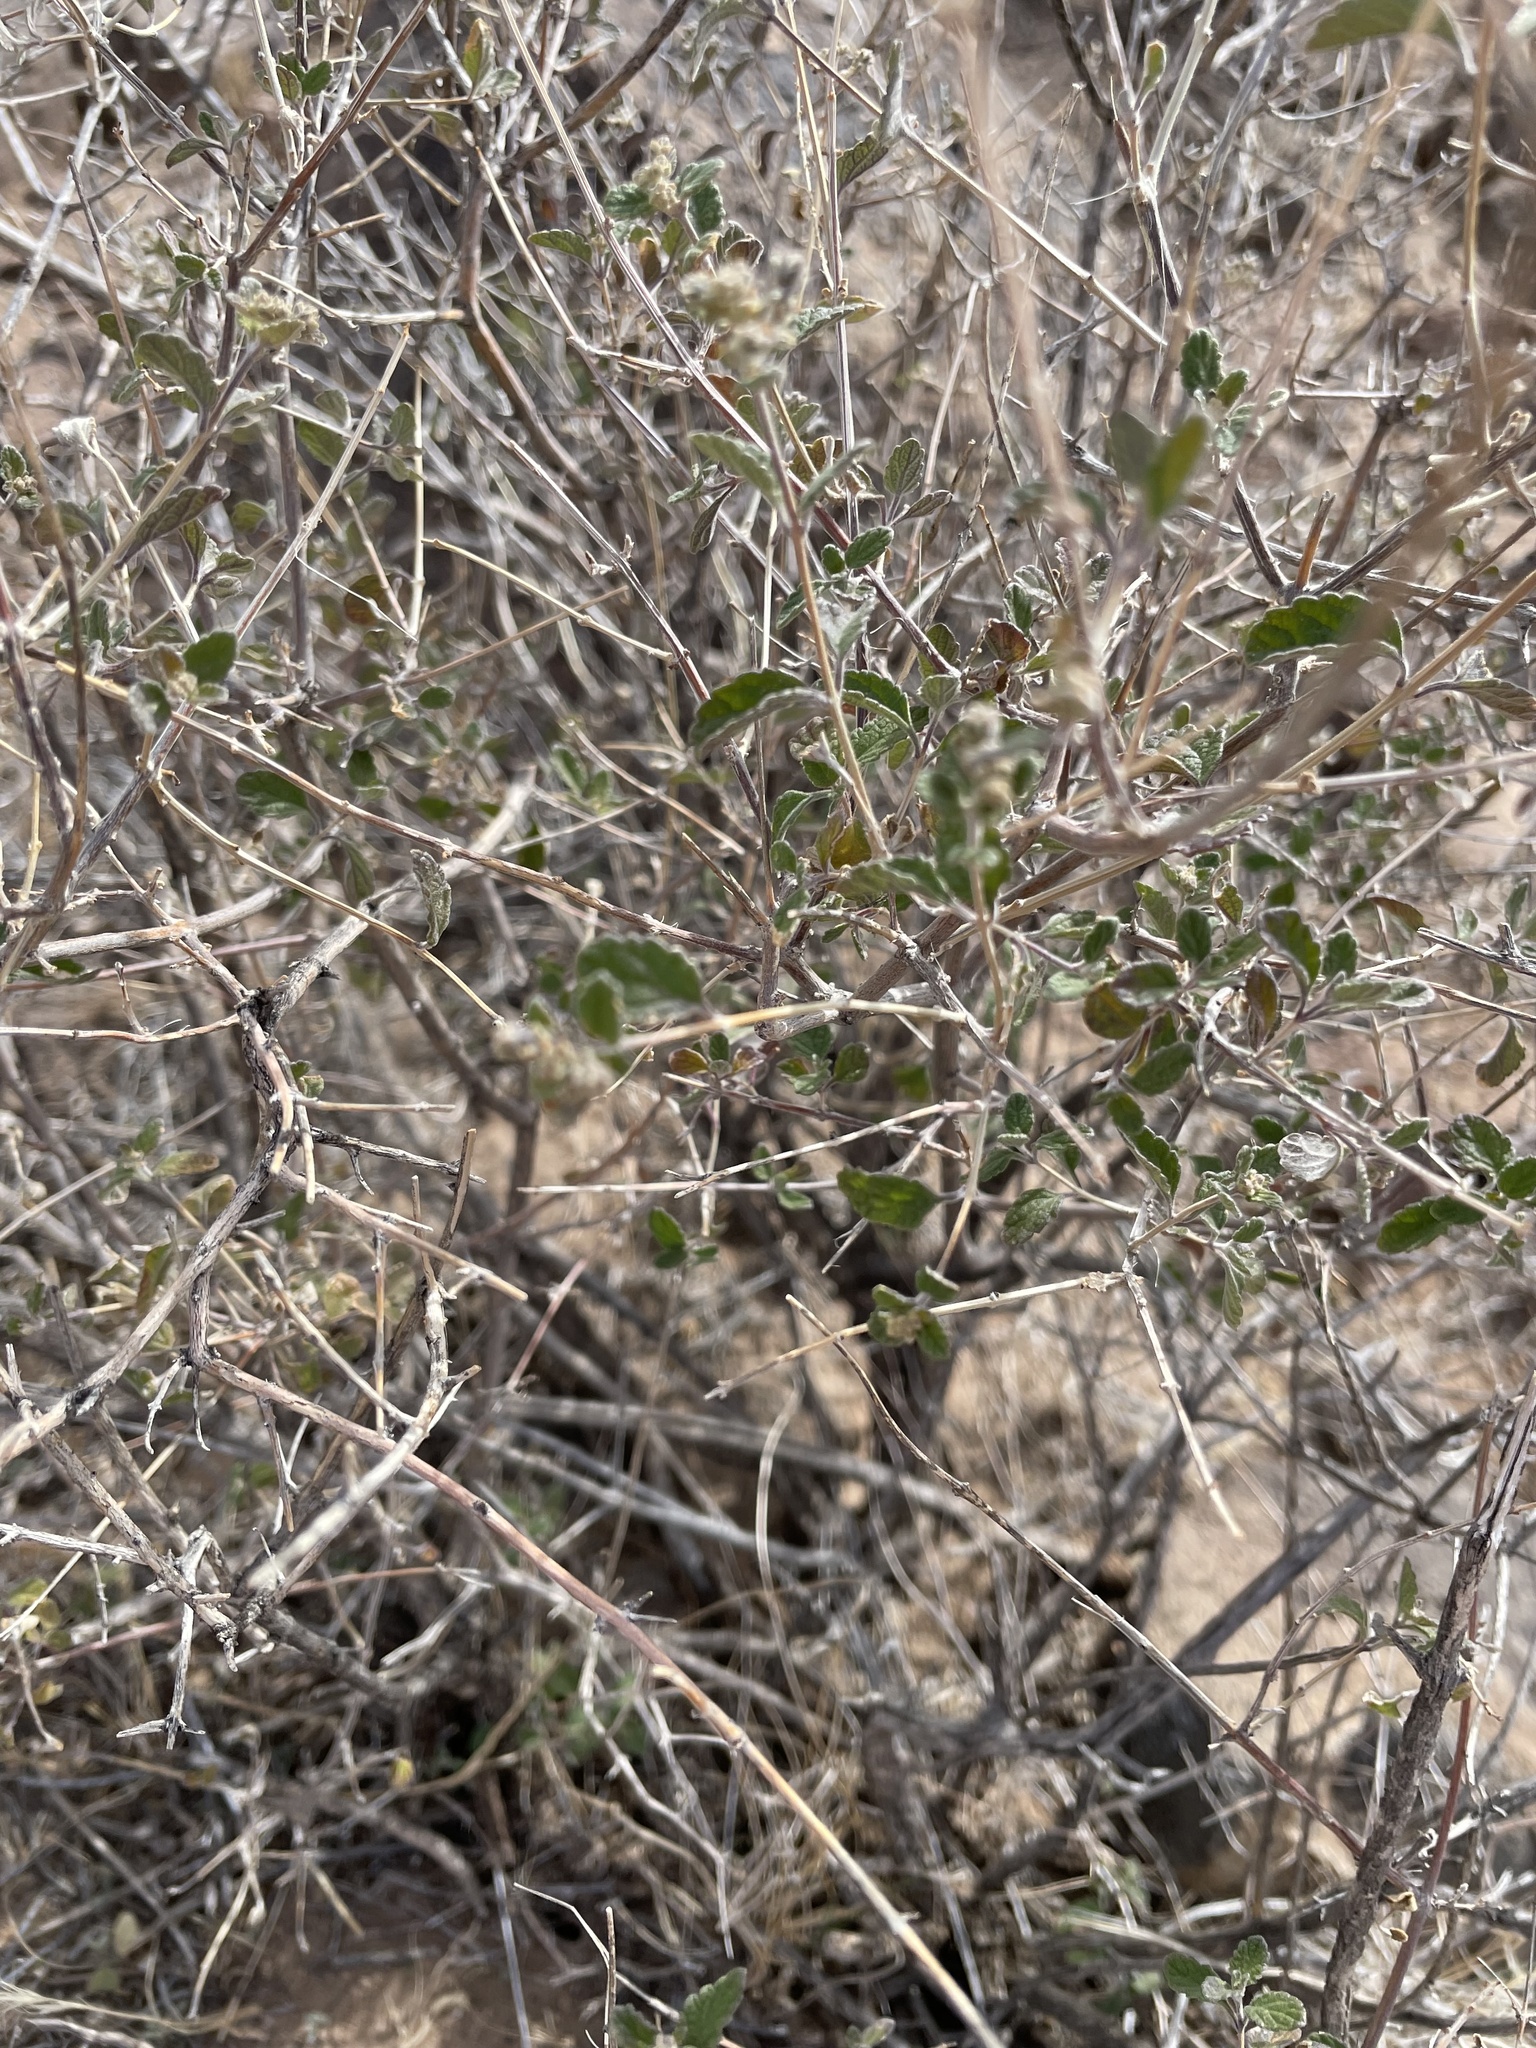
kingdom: Plantae
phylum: Tracheophyta
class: Magnoliopsida
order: Lamiales
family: Verbenaceae
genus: Aloysia
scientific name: Aloysia wrightii
